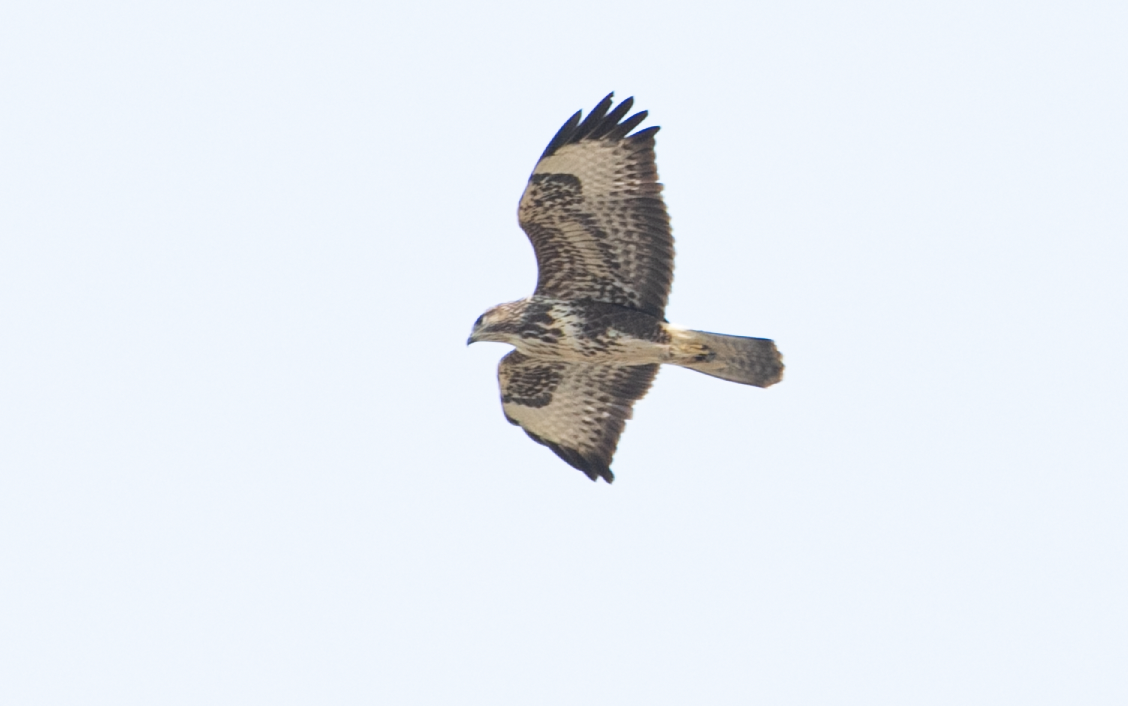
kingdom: Animalia
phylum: Chordata
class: Aves
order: Accipitriformes
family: Accipitridae
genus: Buteo
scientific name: Buteo buteo
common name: Common buzzard
